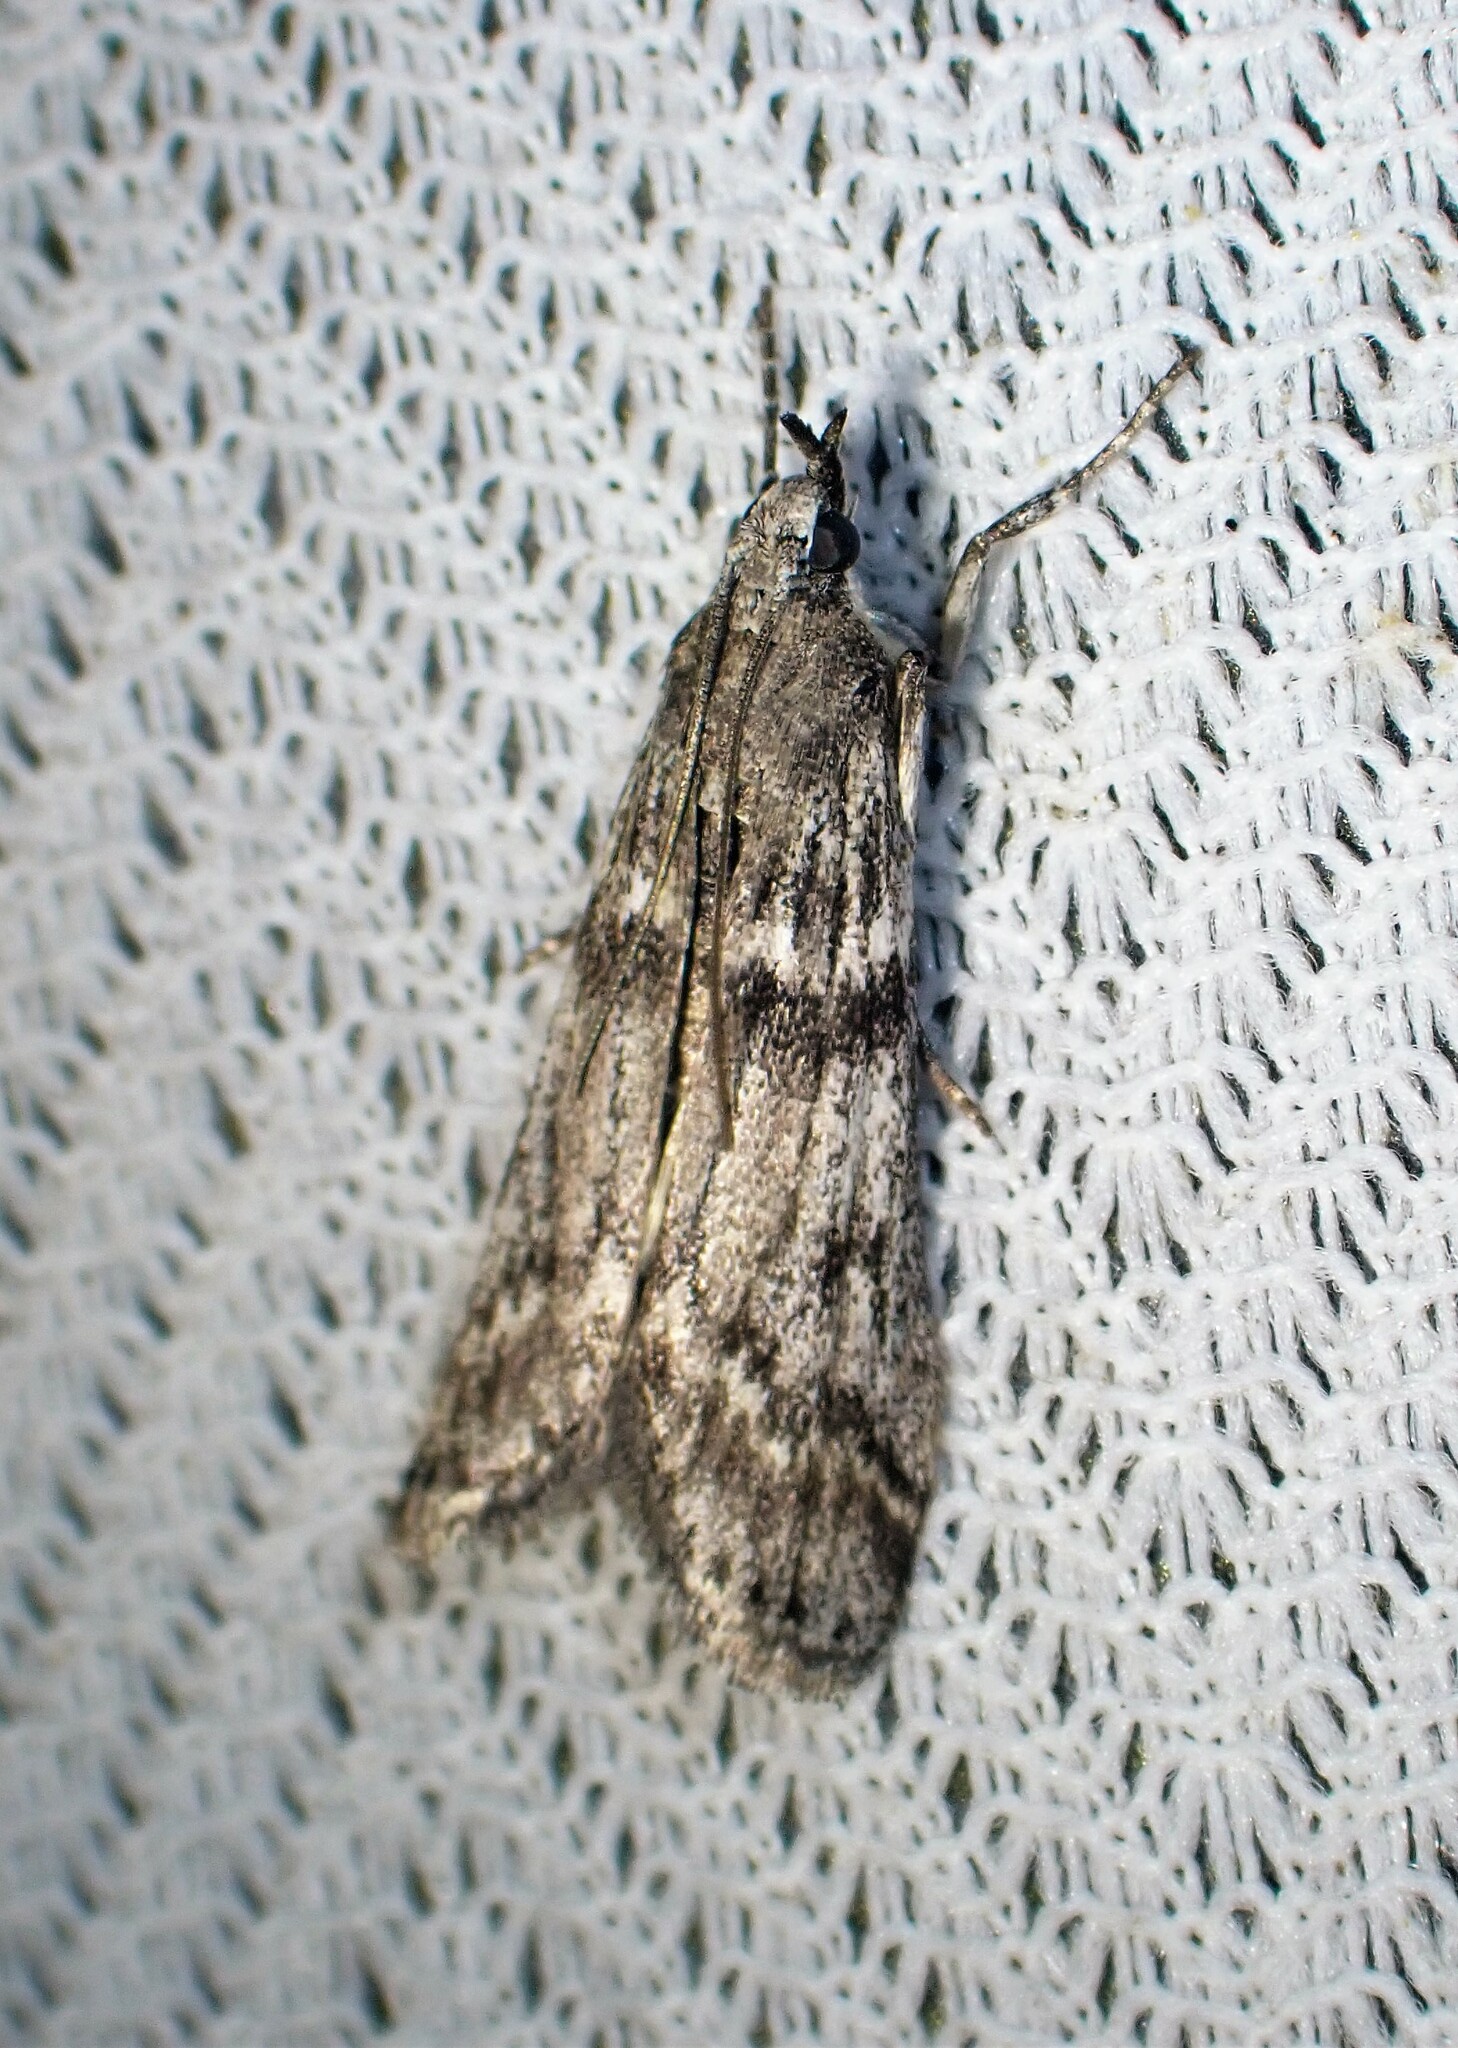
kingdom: Animalia
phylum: Arthropoda
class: Insecta
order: Lepidoptera
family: Pyralidae
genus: Zophodia
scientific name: Zophodia convolutella
